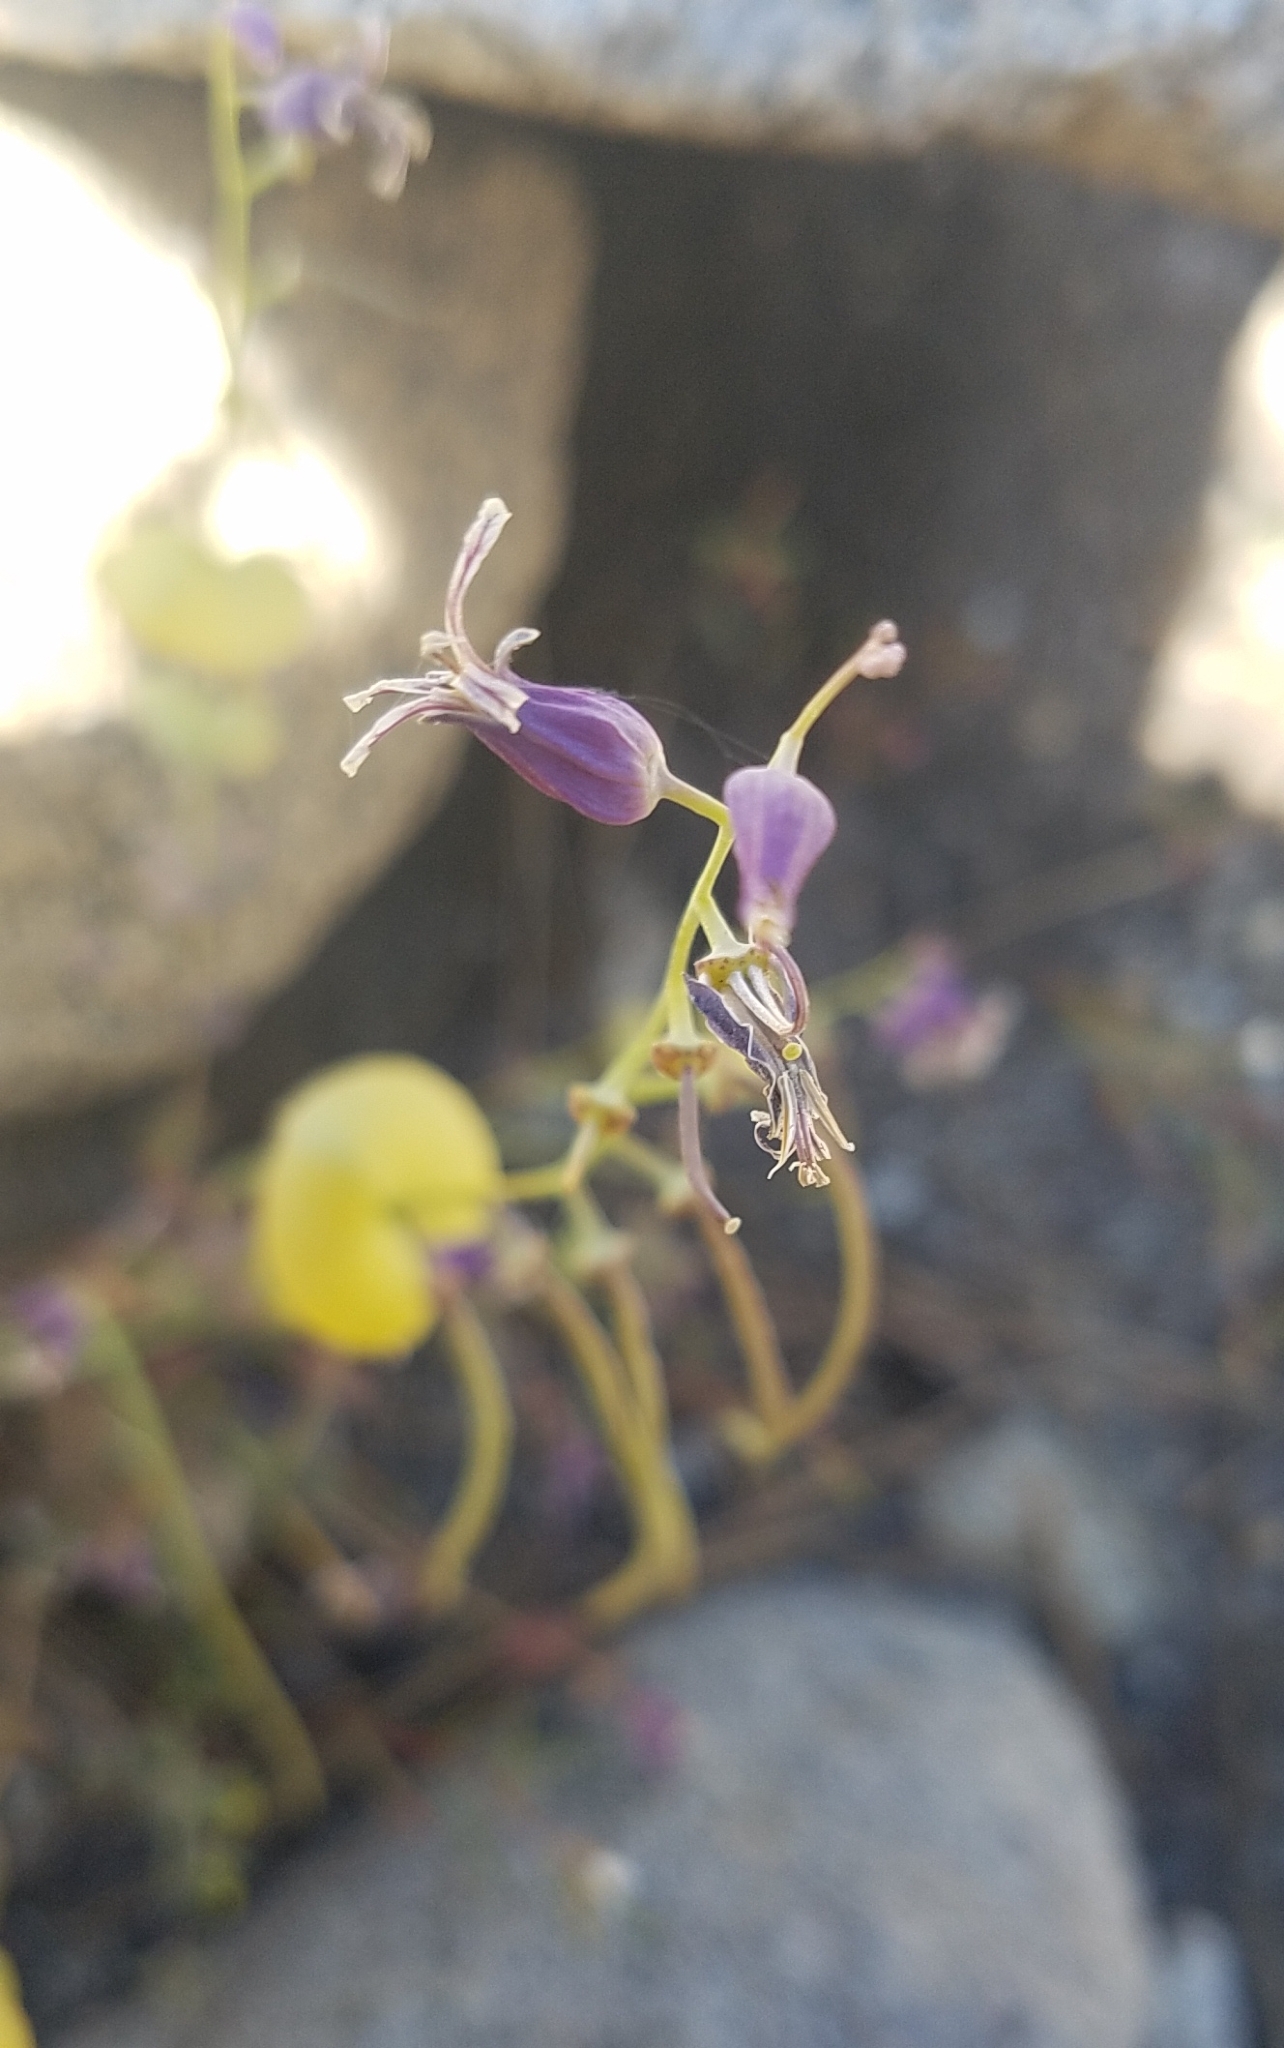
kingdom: Plantae
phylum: Tracheophyta
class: Magnoliopsida
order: Brassicales
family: Brassicaceae
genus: Streptanthus
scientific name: Streptanthus tortuosus
